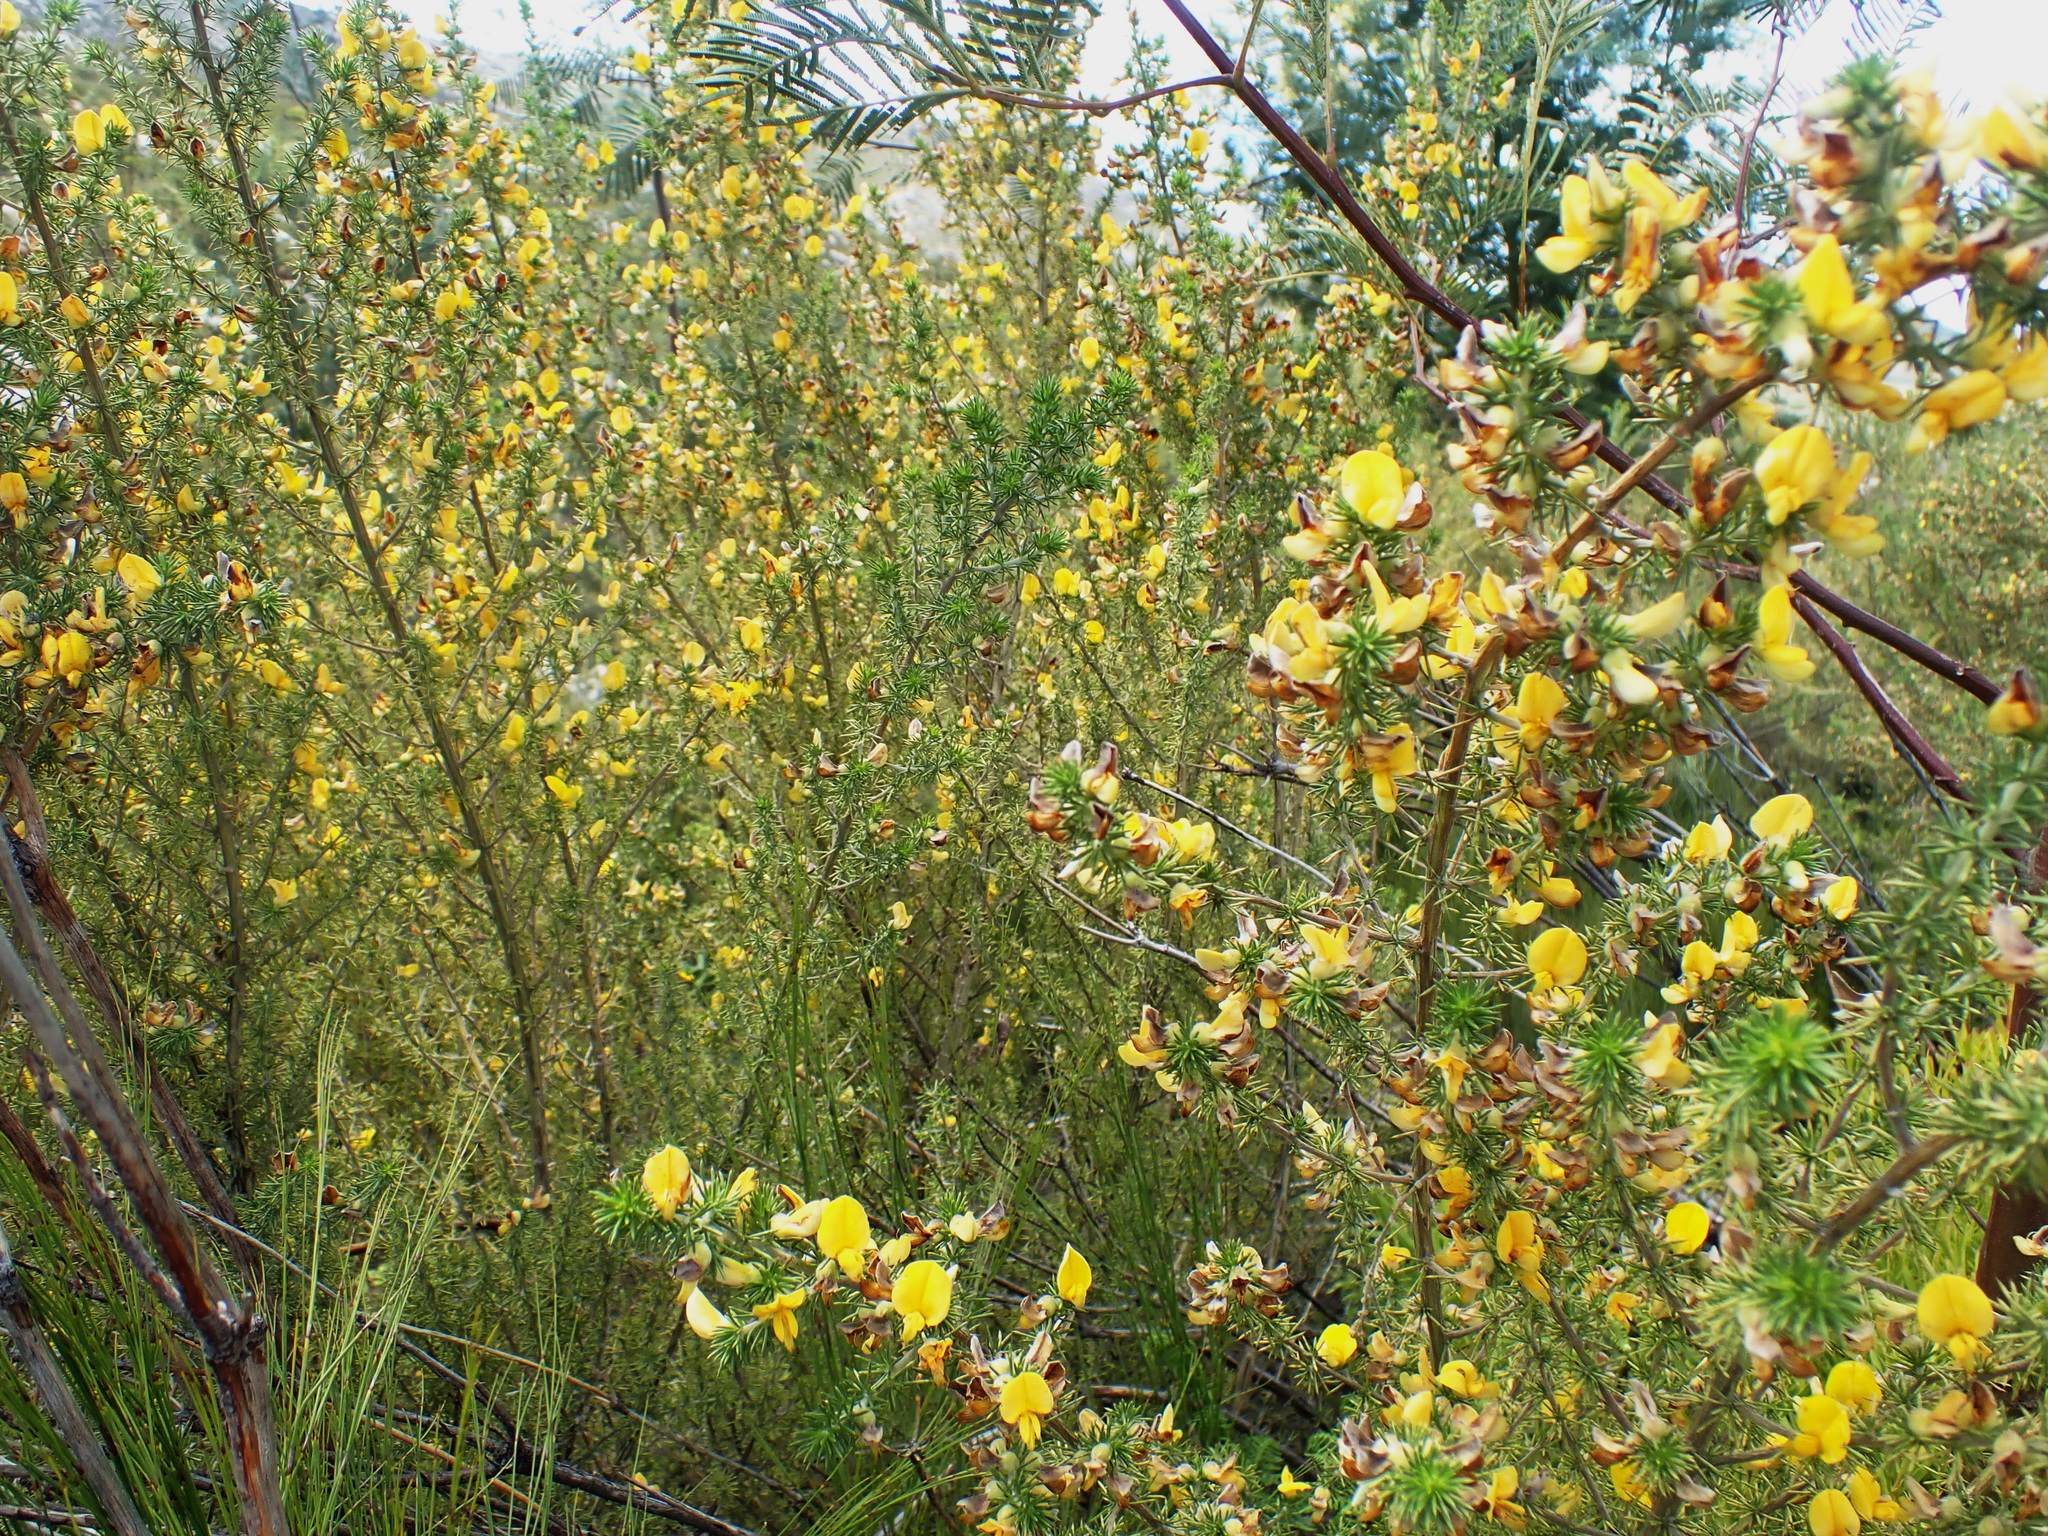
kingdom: Plantae
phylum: Tracheophyta
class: Magnoliopsida
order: Fabales
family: Fabaceae
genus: Aspalathus
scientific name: Aspalathus hirta
